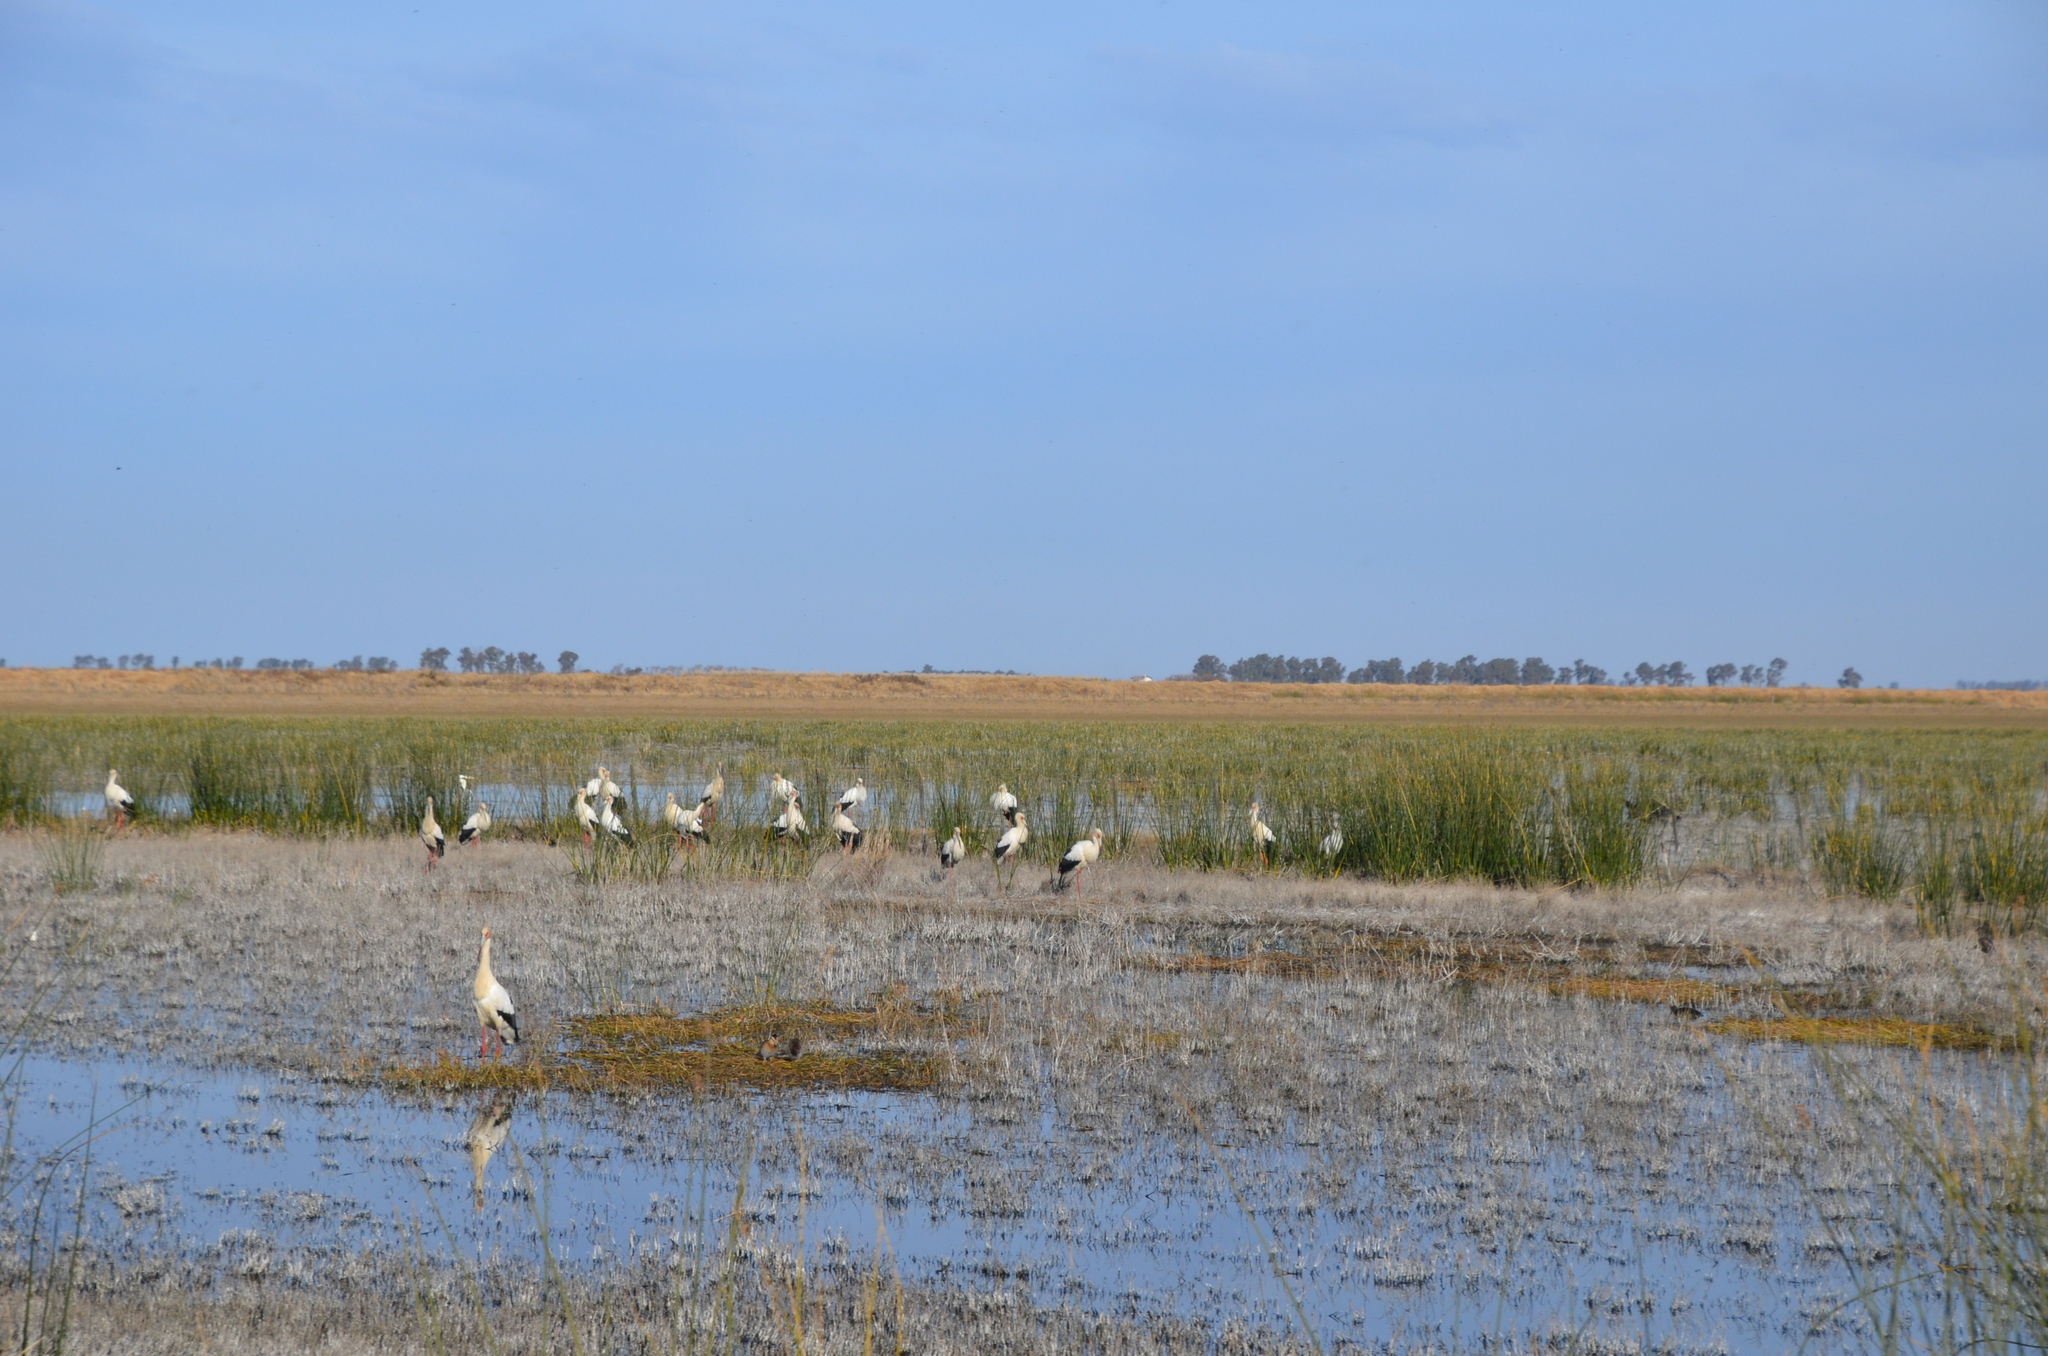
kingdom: Animalia
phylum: Chordata
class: Aves
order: Ciconiiformes
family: Ciconiidae
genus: Ciconia
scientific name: Ciconia maguari
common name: Maguari stork
